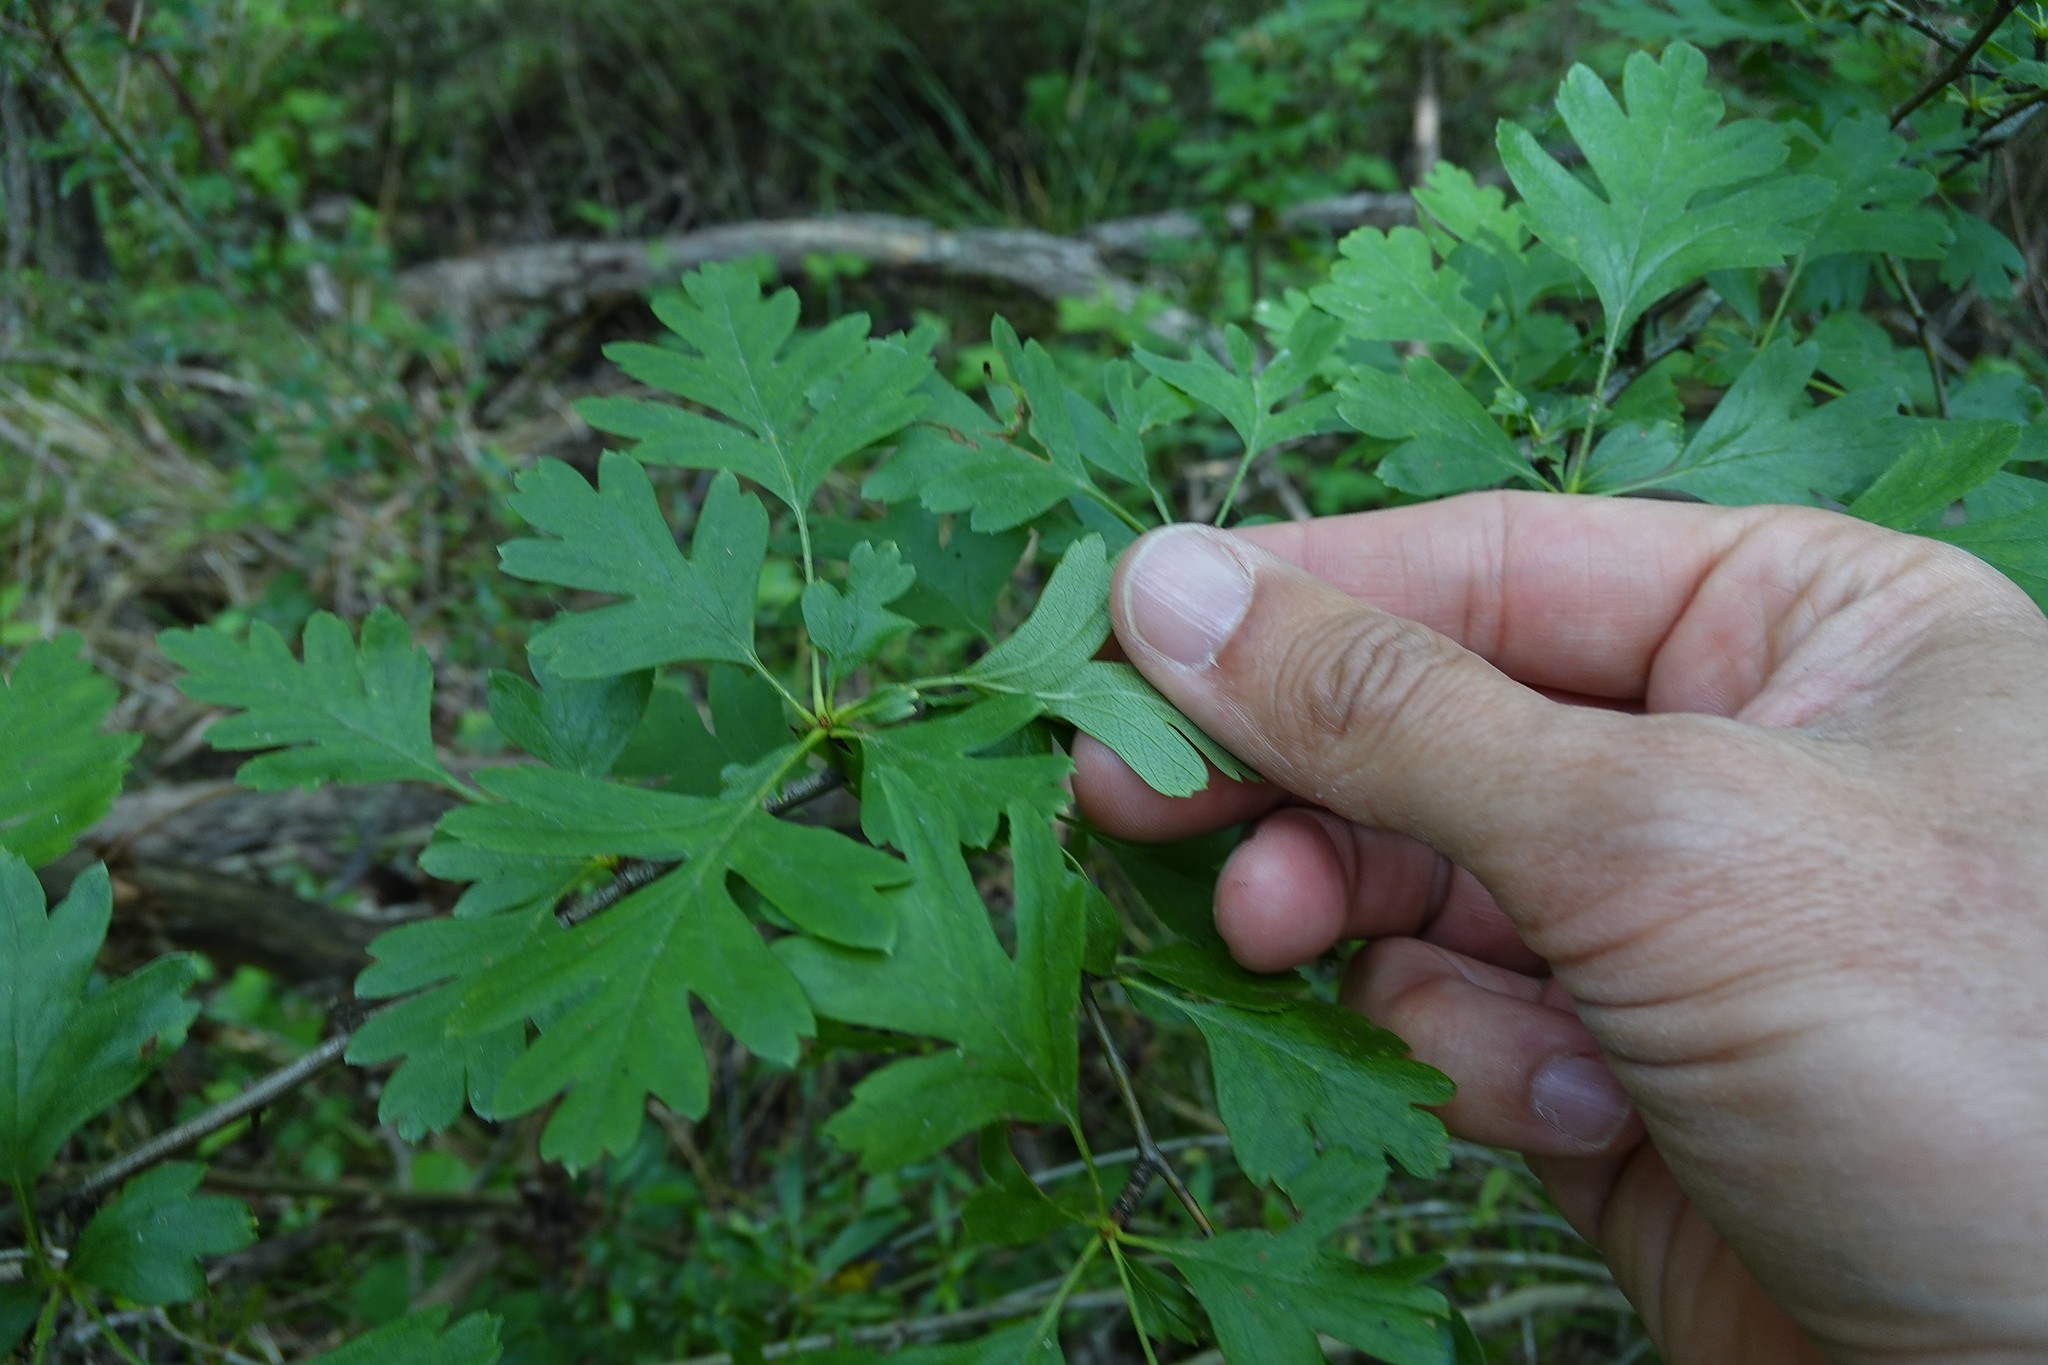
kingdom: Plantae
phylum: Tracheophyta
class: Magnoliopsida
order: Rosales
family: Rosaceae
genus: Crataegus
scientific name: Crataegus monogyna
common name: Hawthorn
